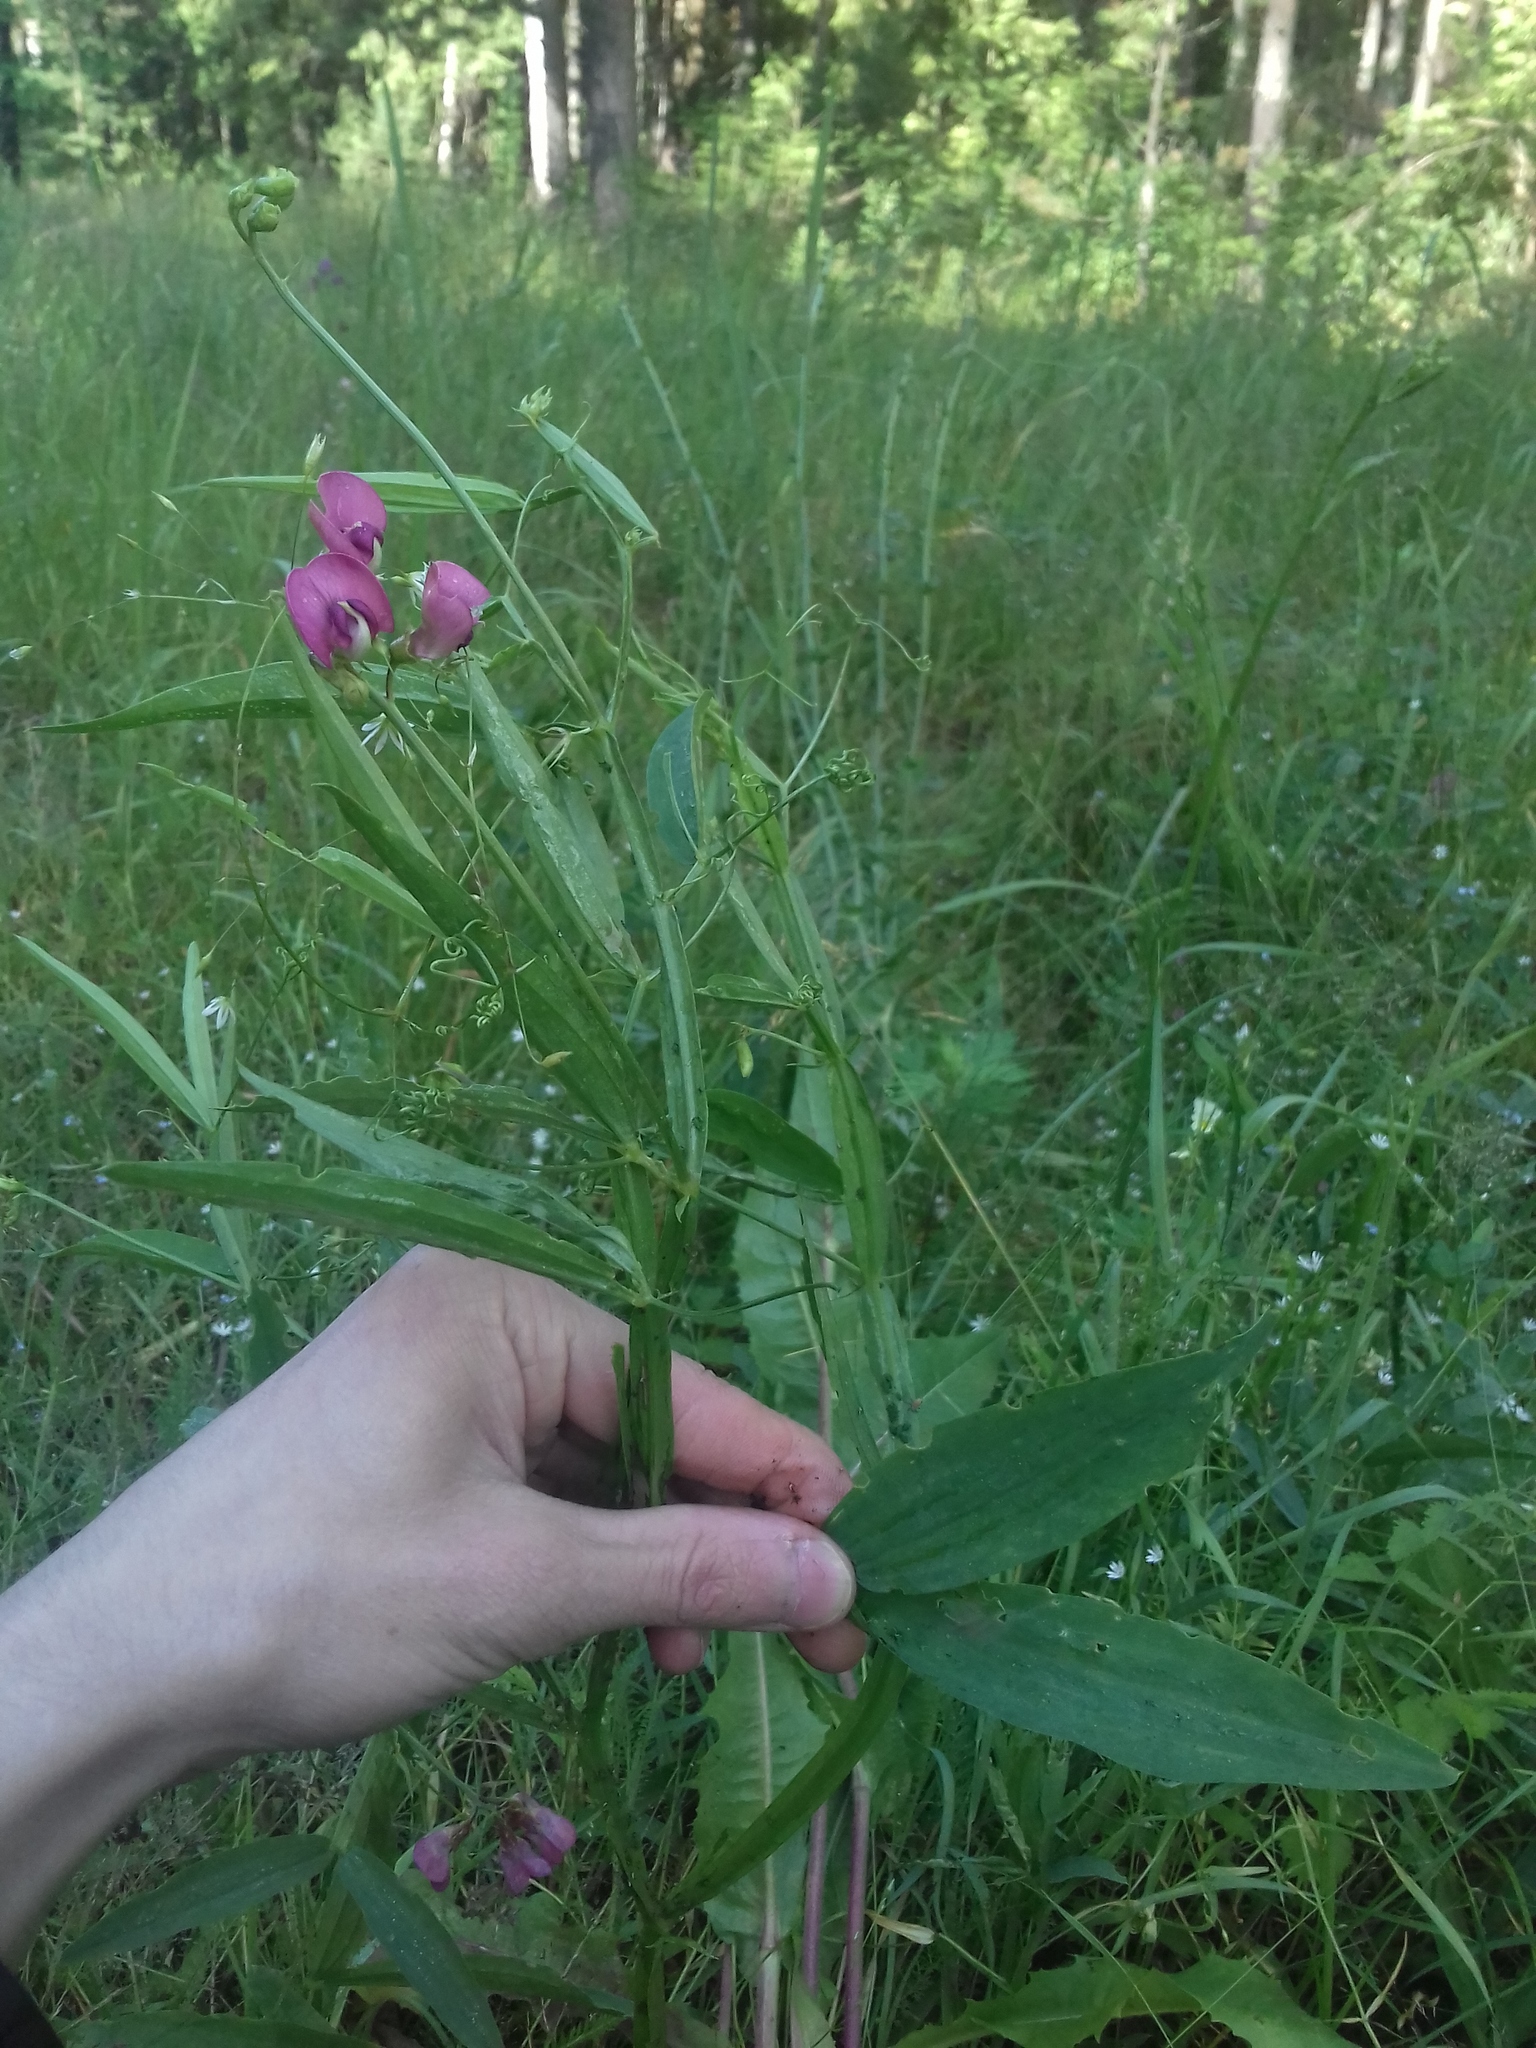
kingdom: Plantae
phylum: Tracheophyta
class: Magnoliopsida
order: Fabales
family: Fabaceae
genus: Lathyrus
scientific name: Lathyrus sylvestris
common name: Flat pea
